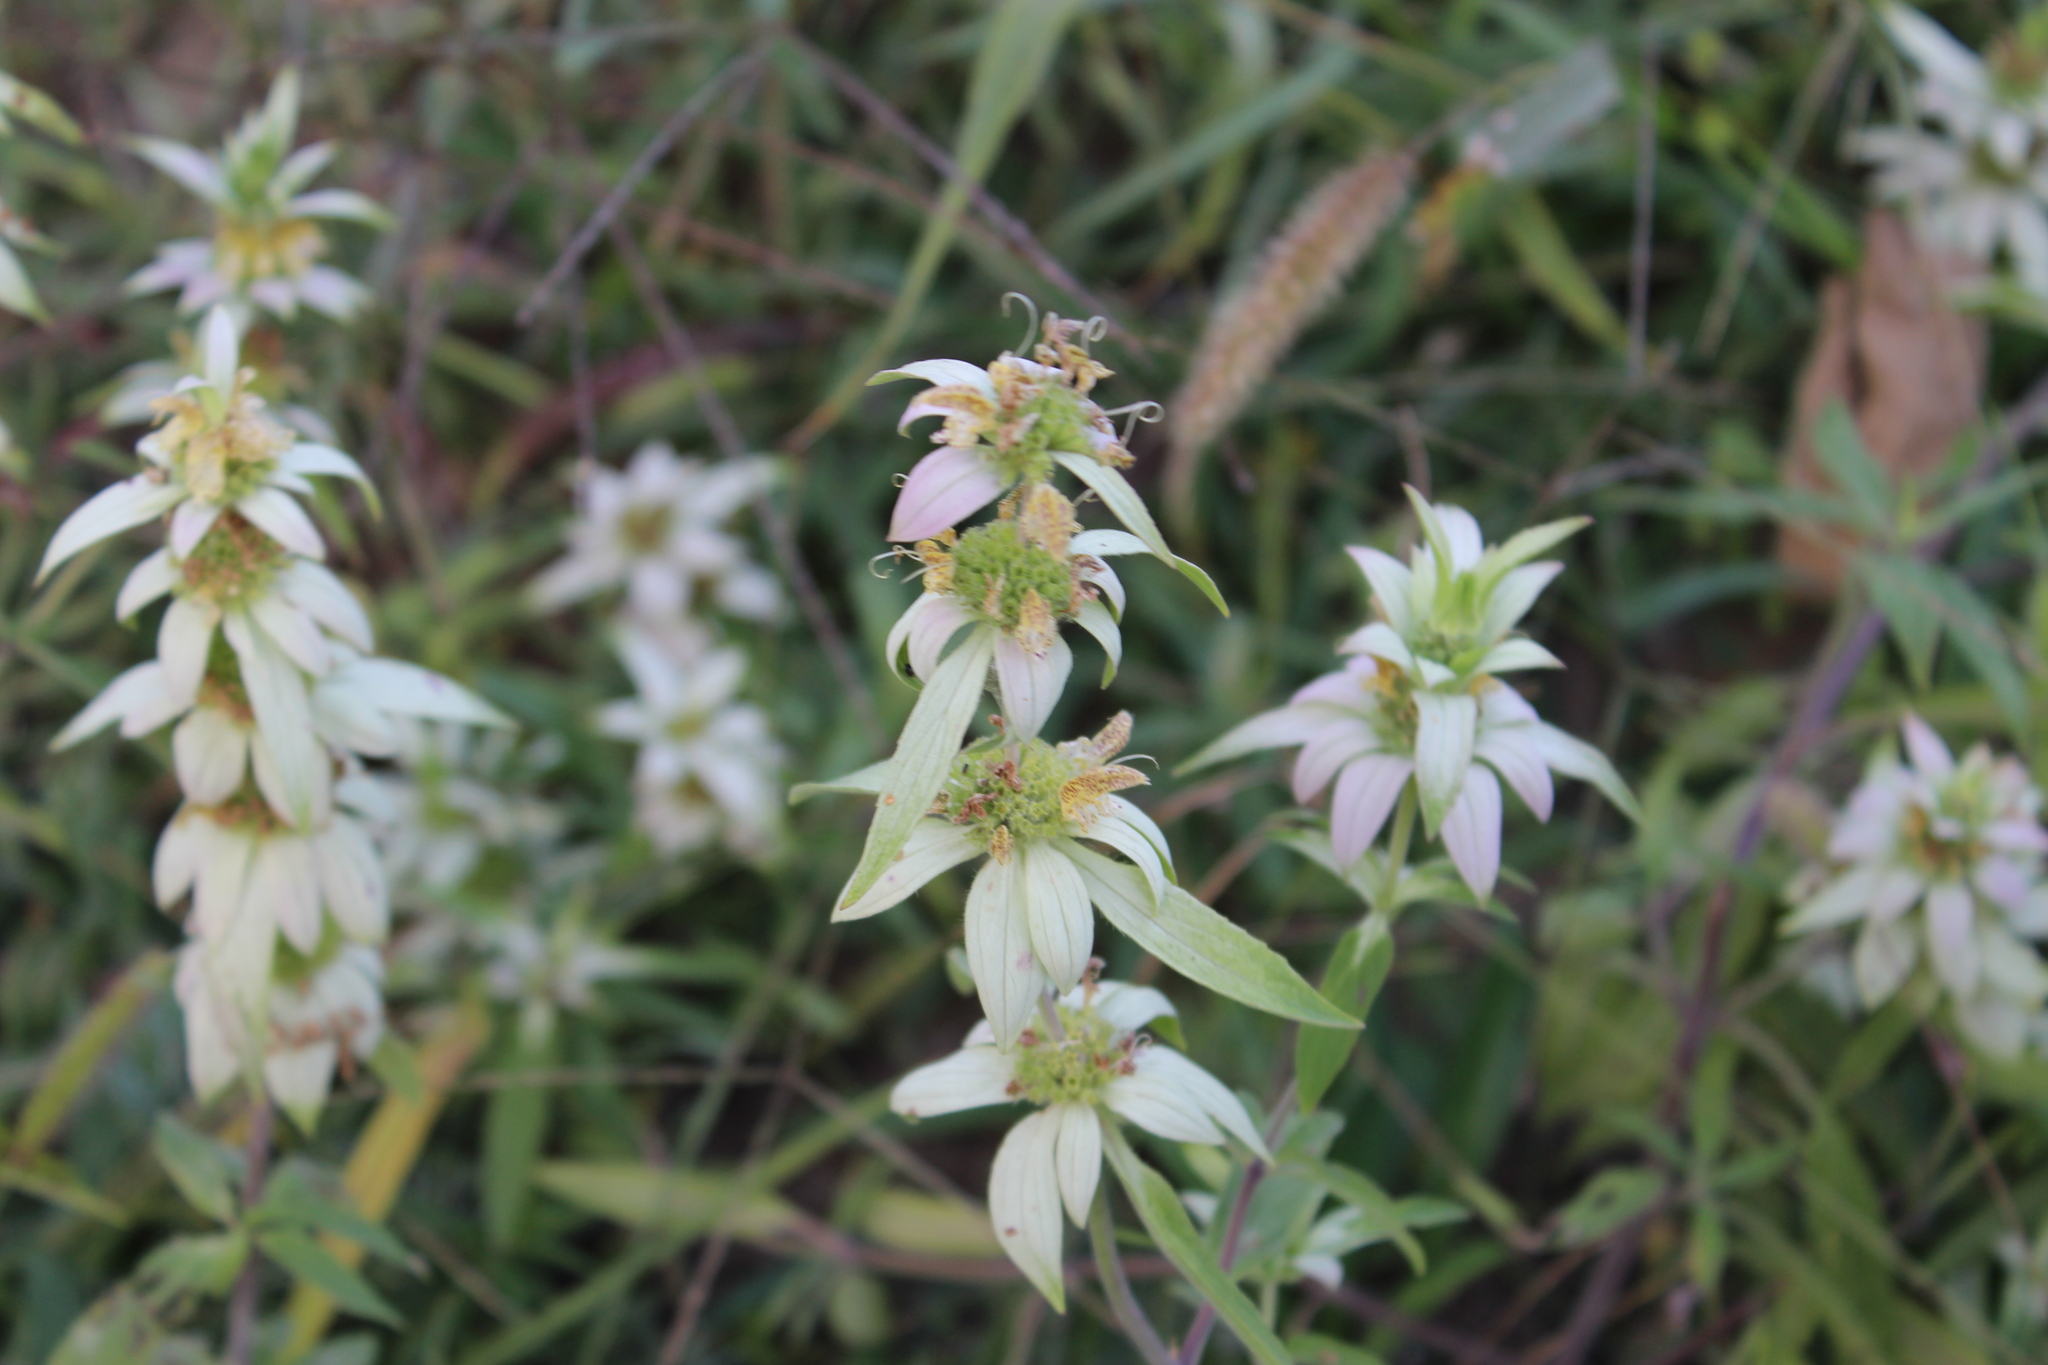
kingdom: Plantae
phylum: Tracheophyta
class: Magnoliopsida
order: Lamiales
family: Lamiaceae
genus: Monarda
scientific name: Monarda punctata
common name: Dotted monarda
